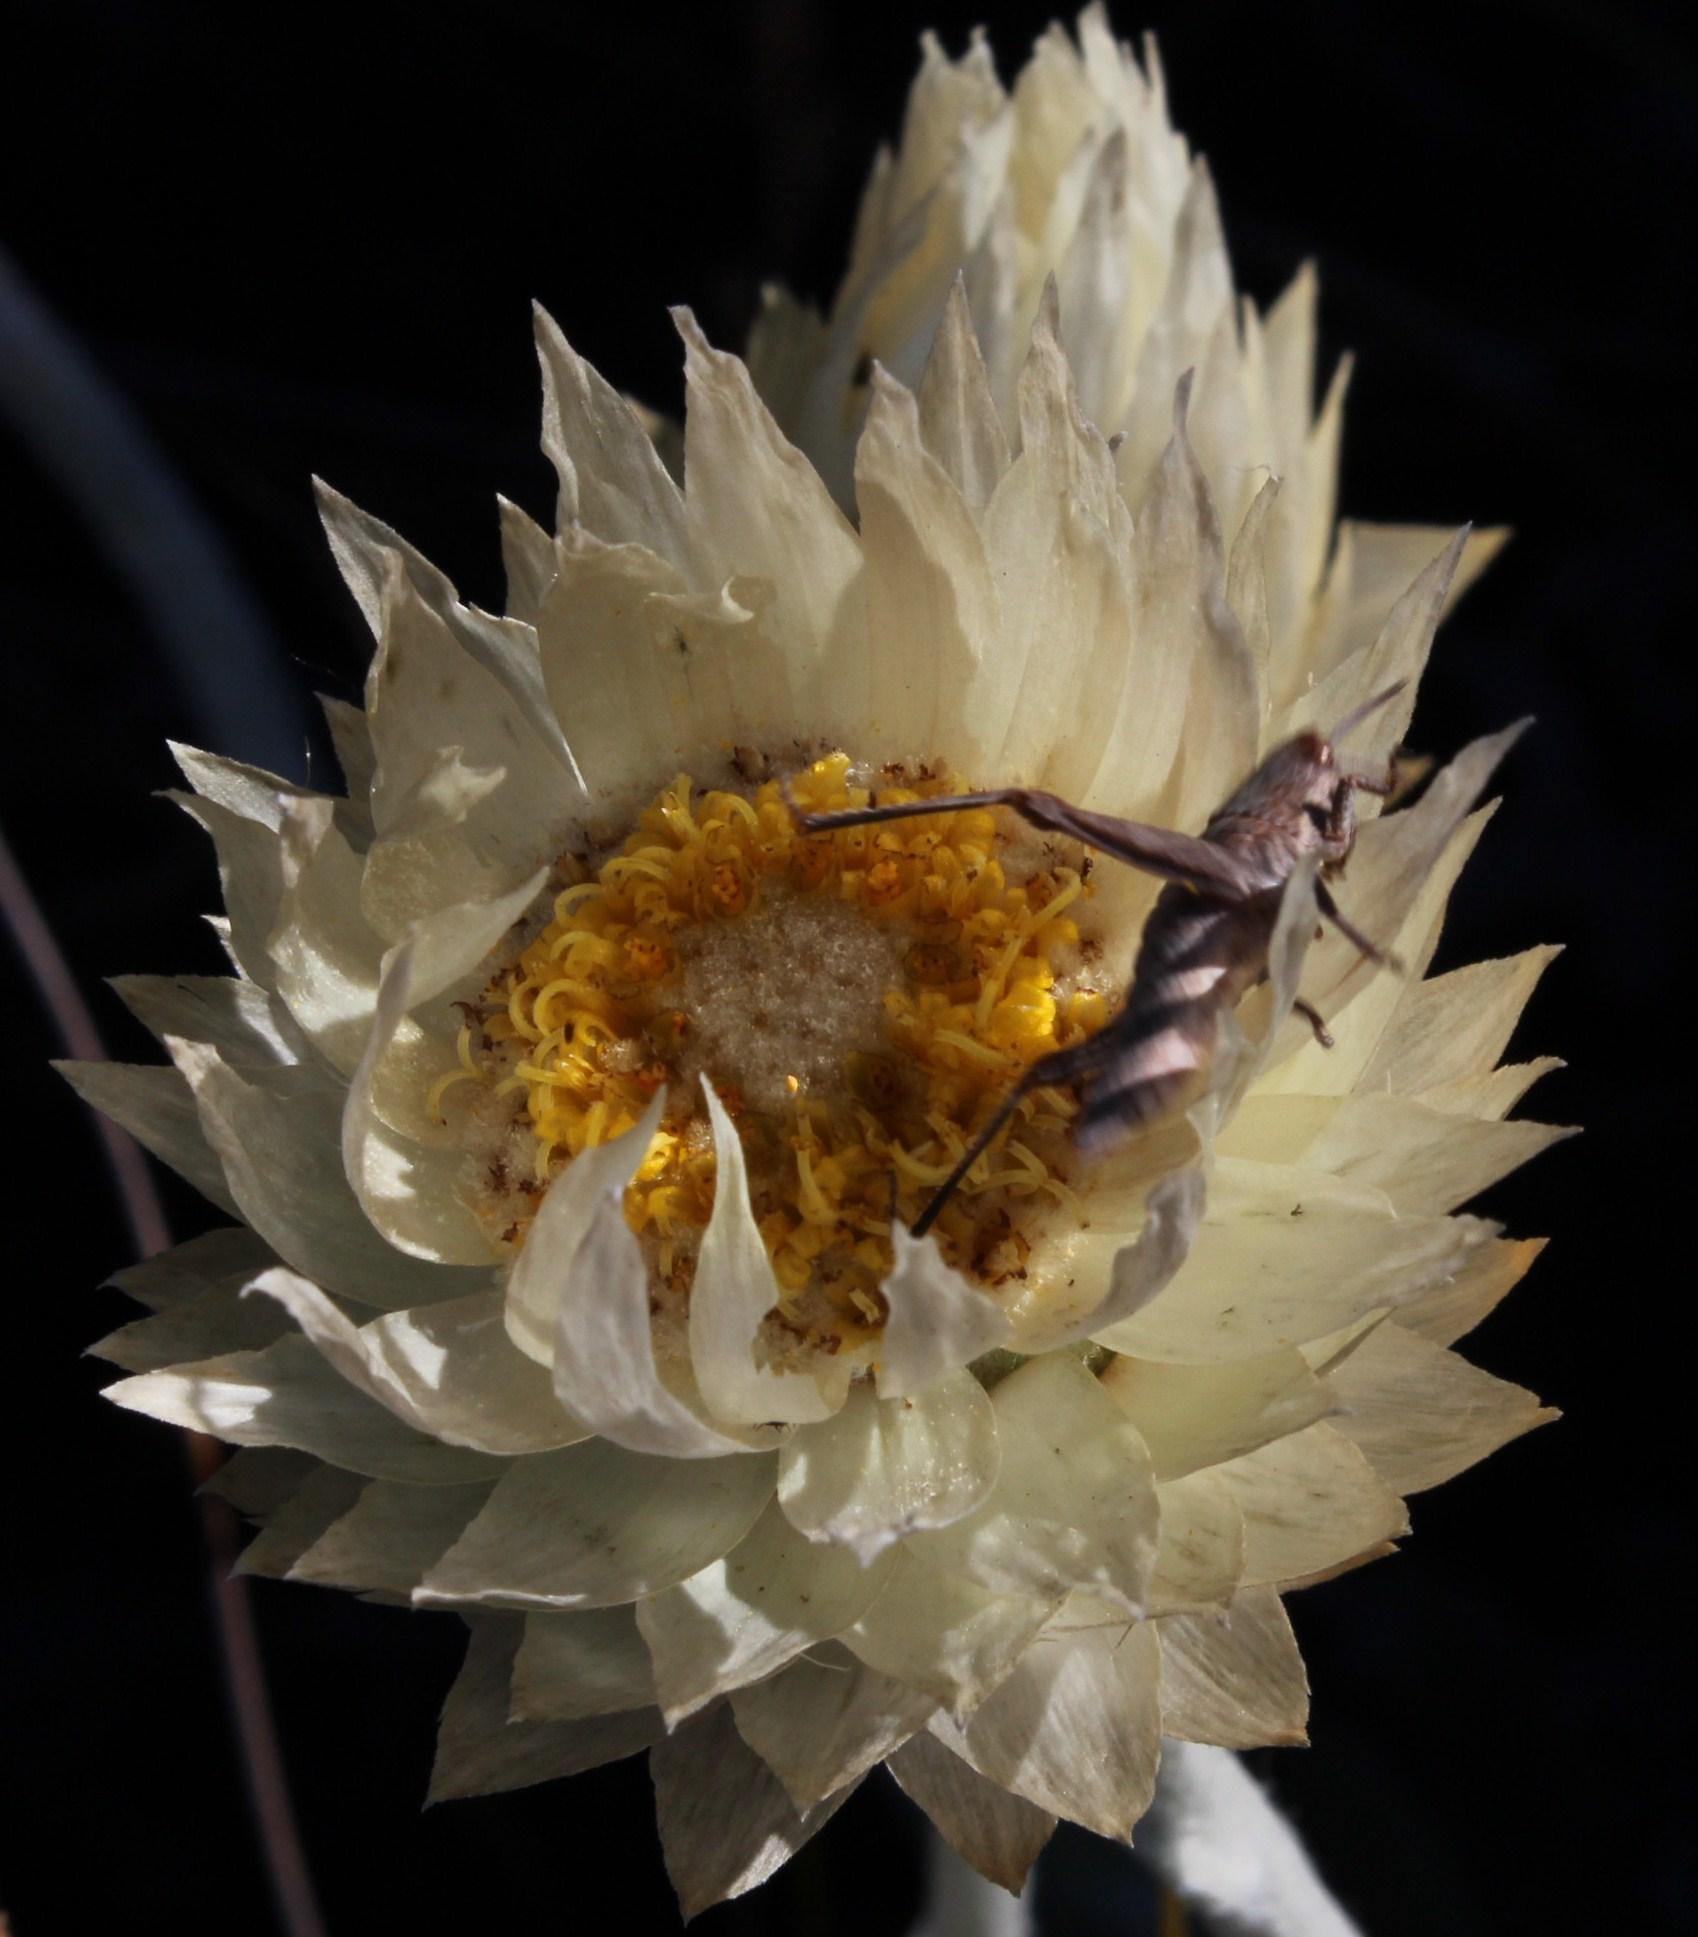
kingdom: Plantae
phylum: Tracheophyta
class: Magnoliopsida
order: Asterales
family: Asteraceae
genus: Syncarpha
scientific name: Syncarpha speciosissima
